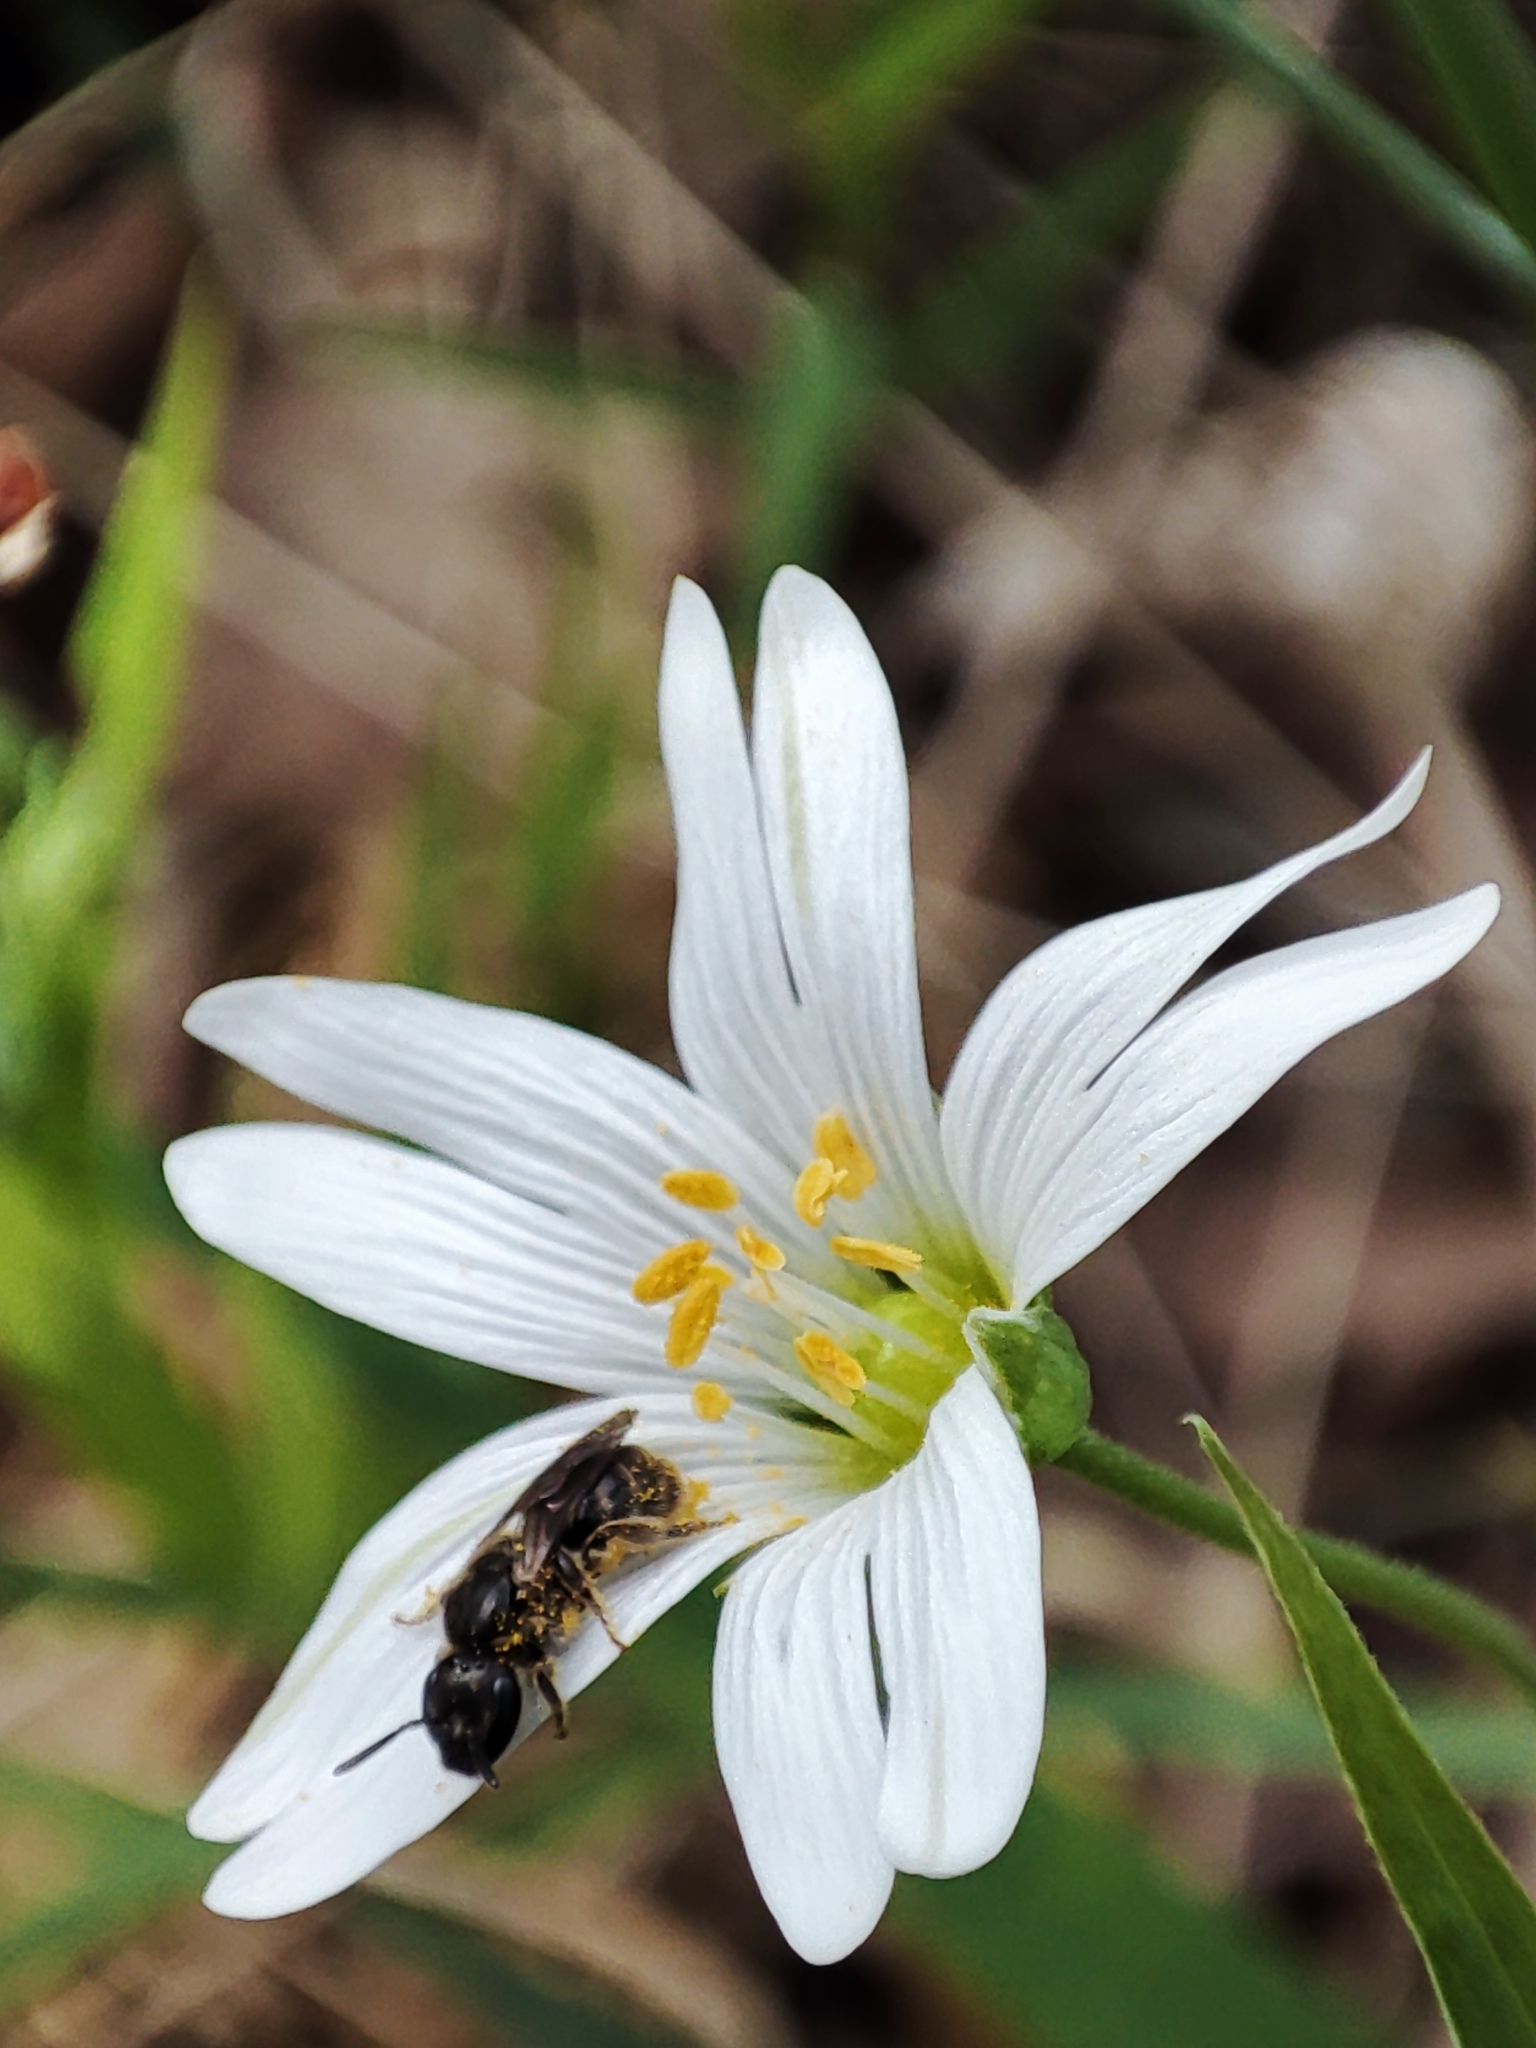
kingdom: Plantae
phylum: Tracheophyta
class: Magnoliopsida
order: Caryophyllales
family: Caryophyllaceae
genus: Rabelera
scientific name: Rabelera holostea
